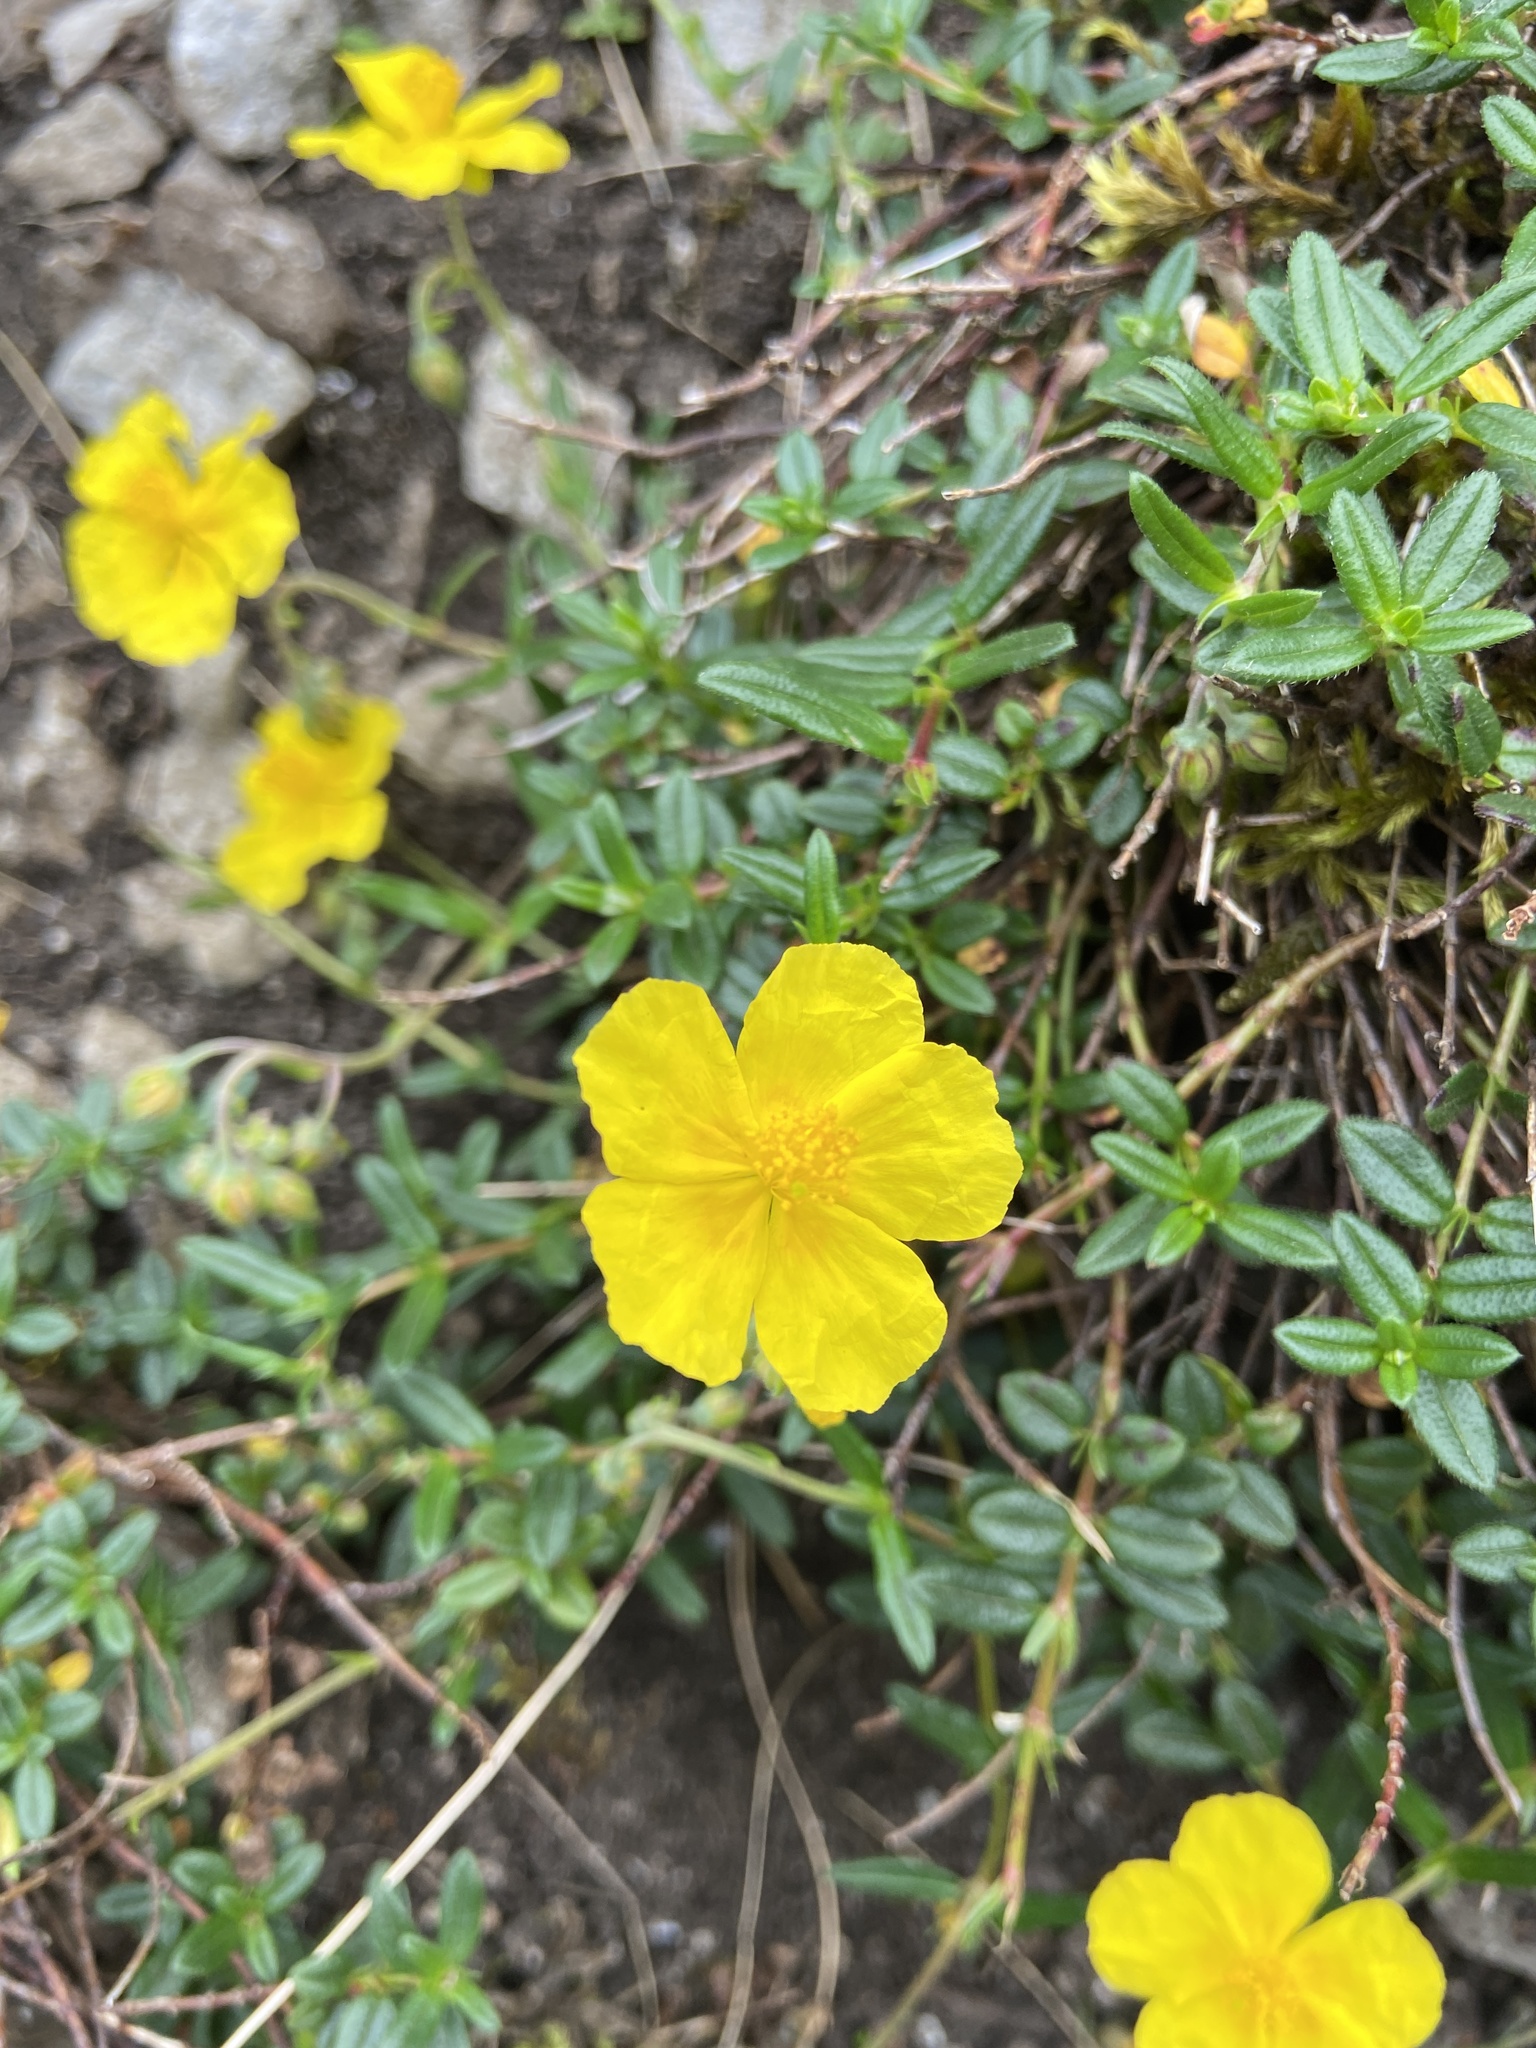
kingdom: Plantae
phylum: Tracheophyta
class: Magnoliopsida
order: Malvales
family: Cistaceae
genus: Helianthemum
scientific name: Helianthemum nummularium
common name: Common rock-rose
